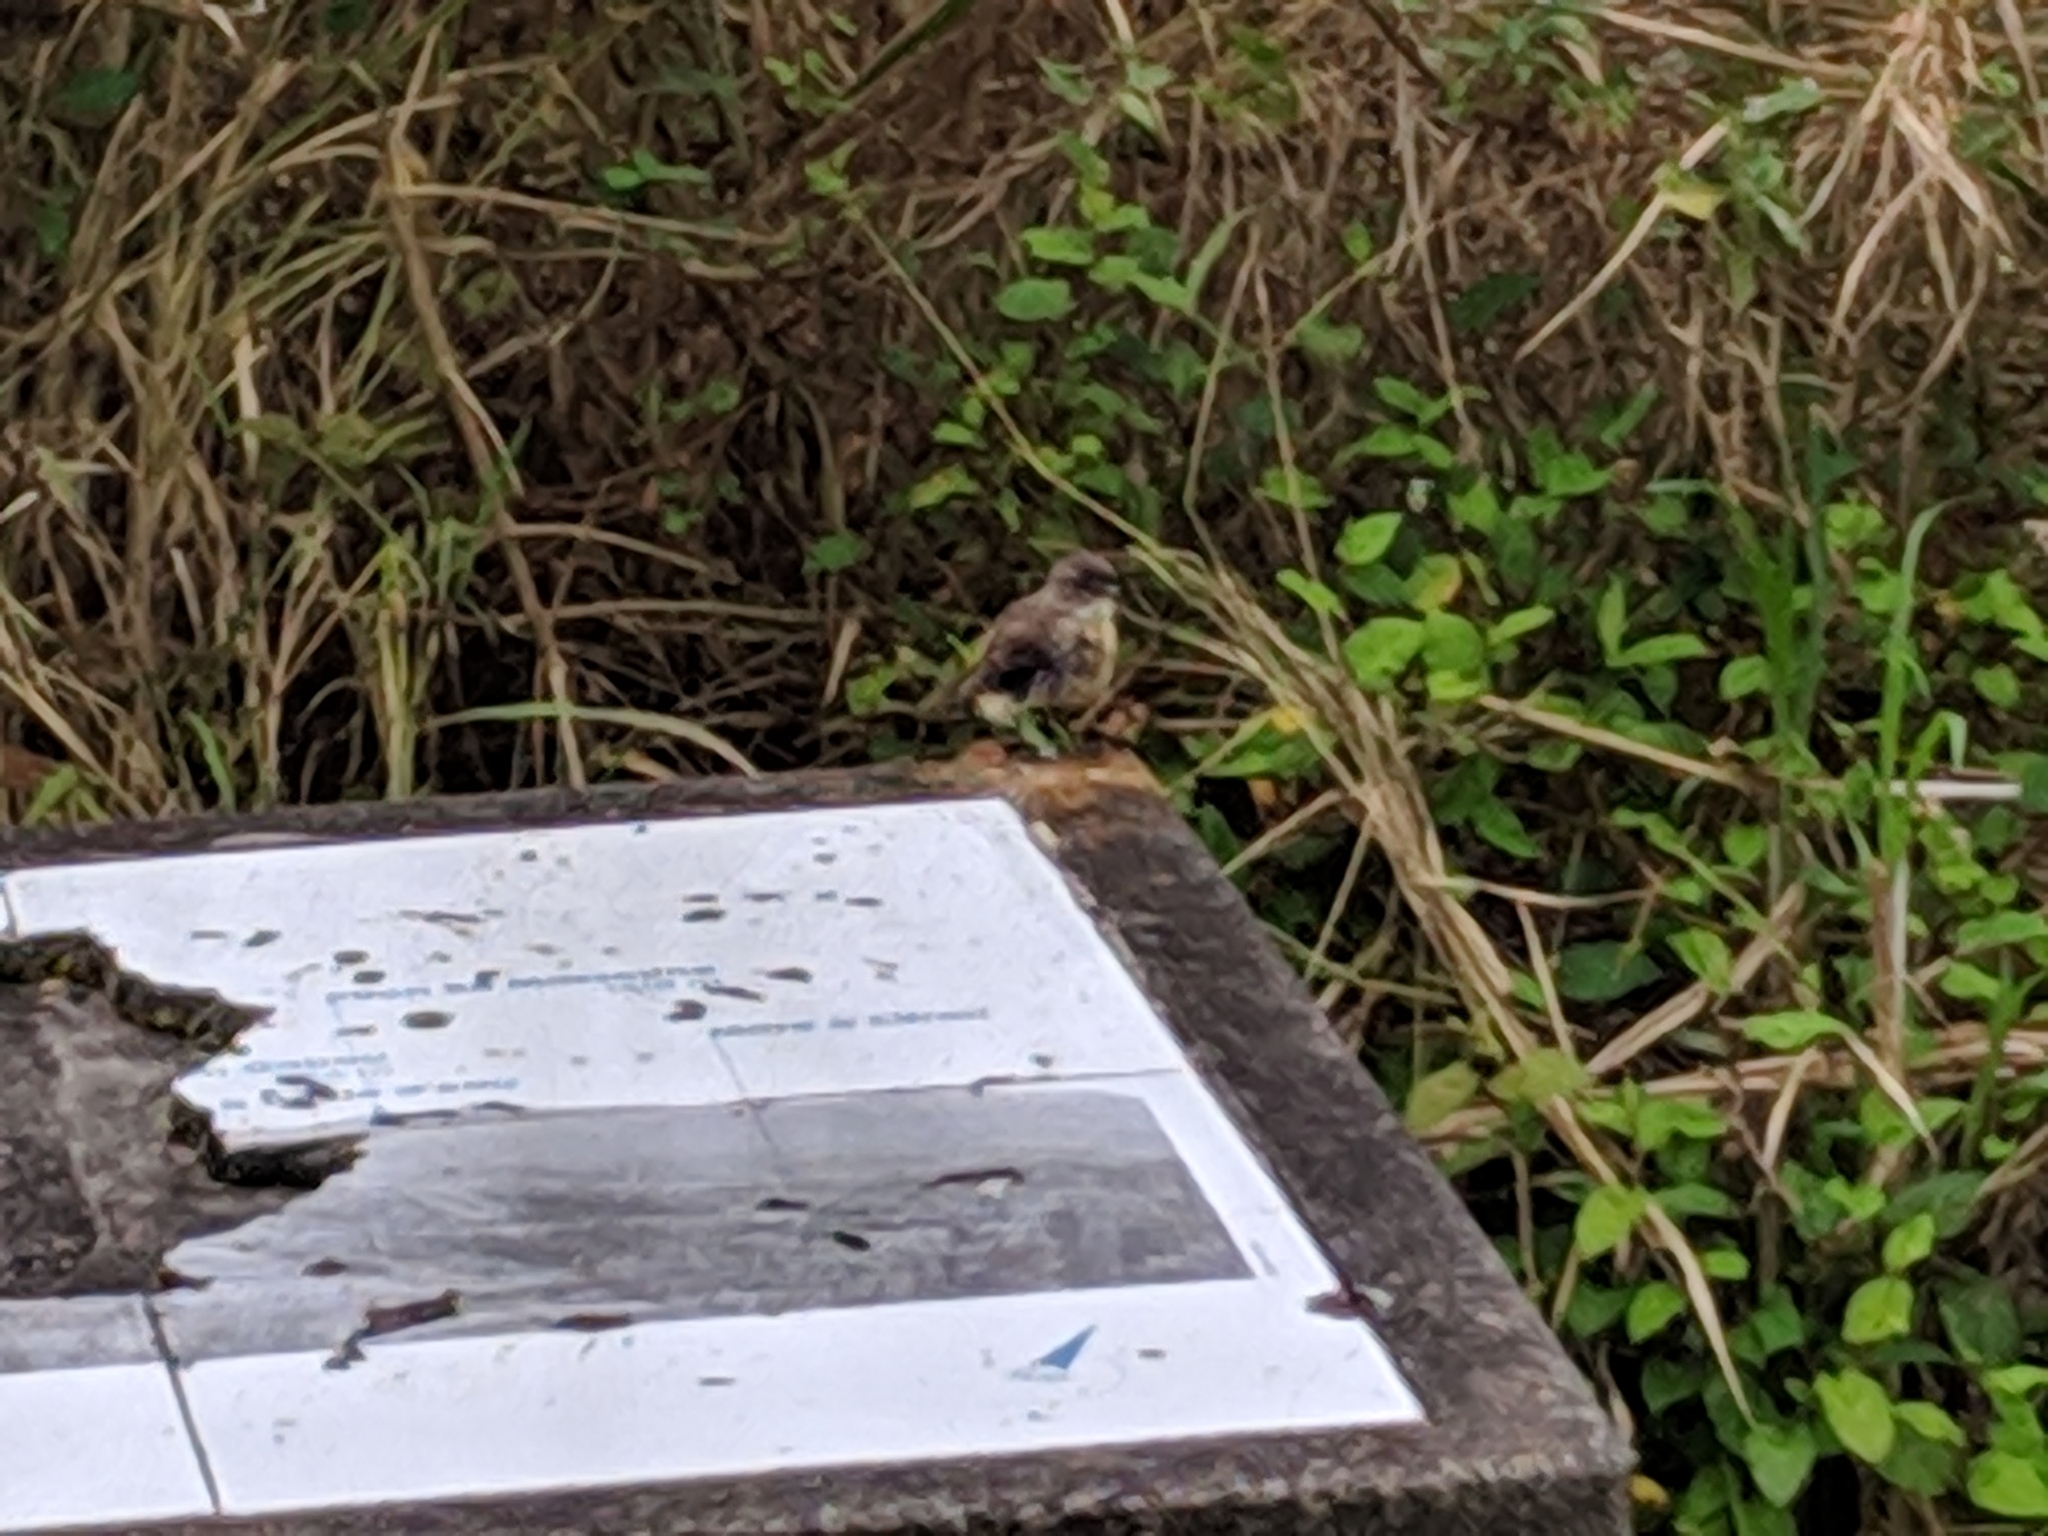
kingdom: Animalia
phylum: Chordata
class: Aves
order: Passeriformes
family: Muscicapidae
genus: Saxicola
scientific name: Saxicola tectes
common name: Reunion stonechat
